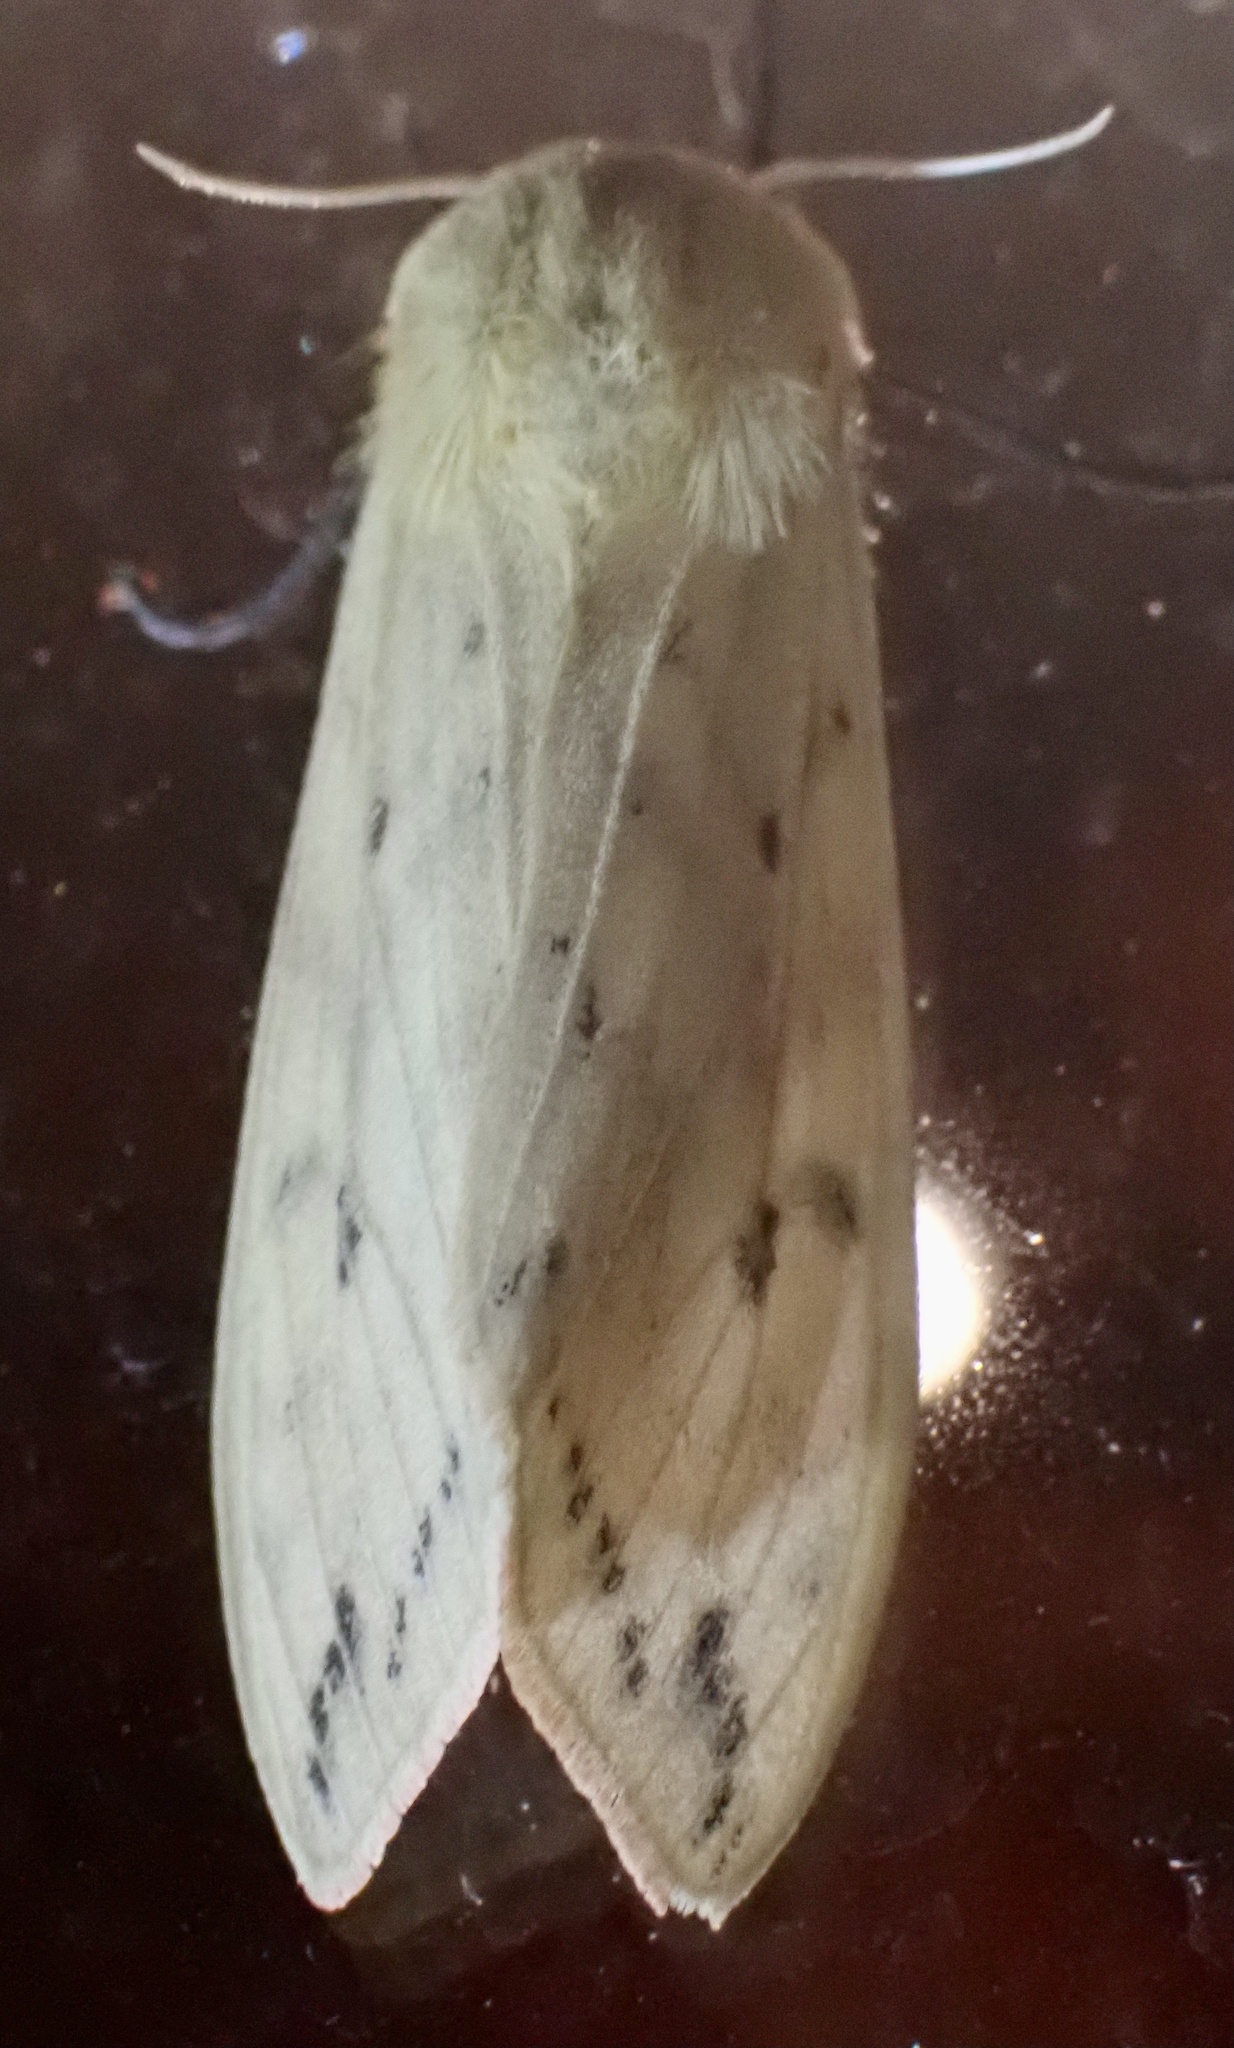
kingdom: Animalia
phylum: Arthropoda
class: Insecta
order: Lepidoptera
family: Erebidae
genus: Pyrrharctia
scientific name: Pyrrharctia isabella
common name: Isabella tiger moth
